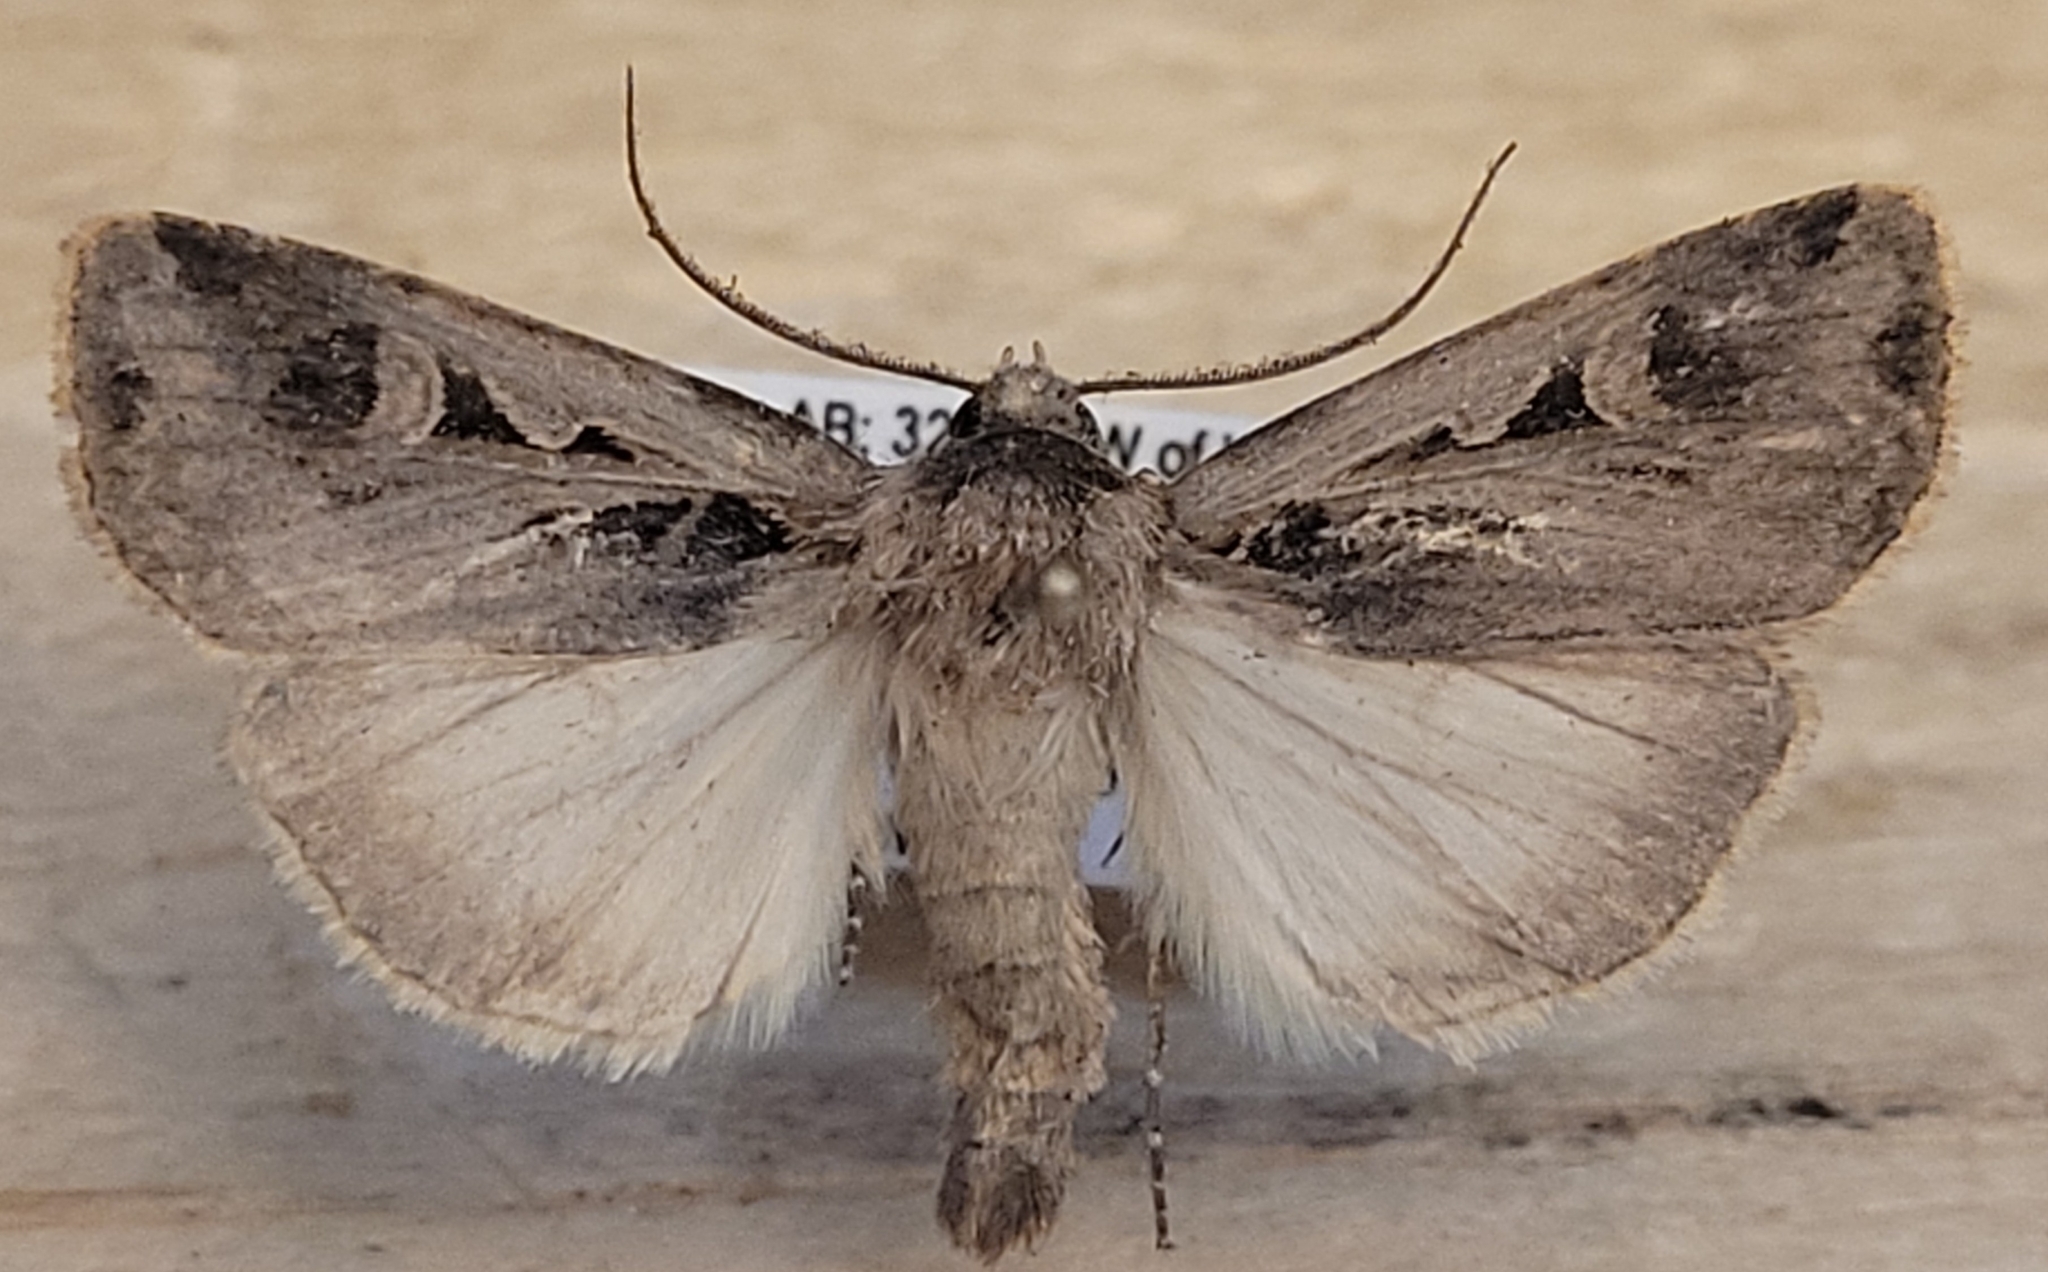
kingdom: Animalia
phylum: Arthropoda
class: Insecta
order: Lepidoptera
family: Noctuidae
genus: Feltia
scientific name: Feltia subgothica
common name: Gothic dart
